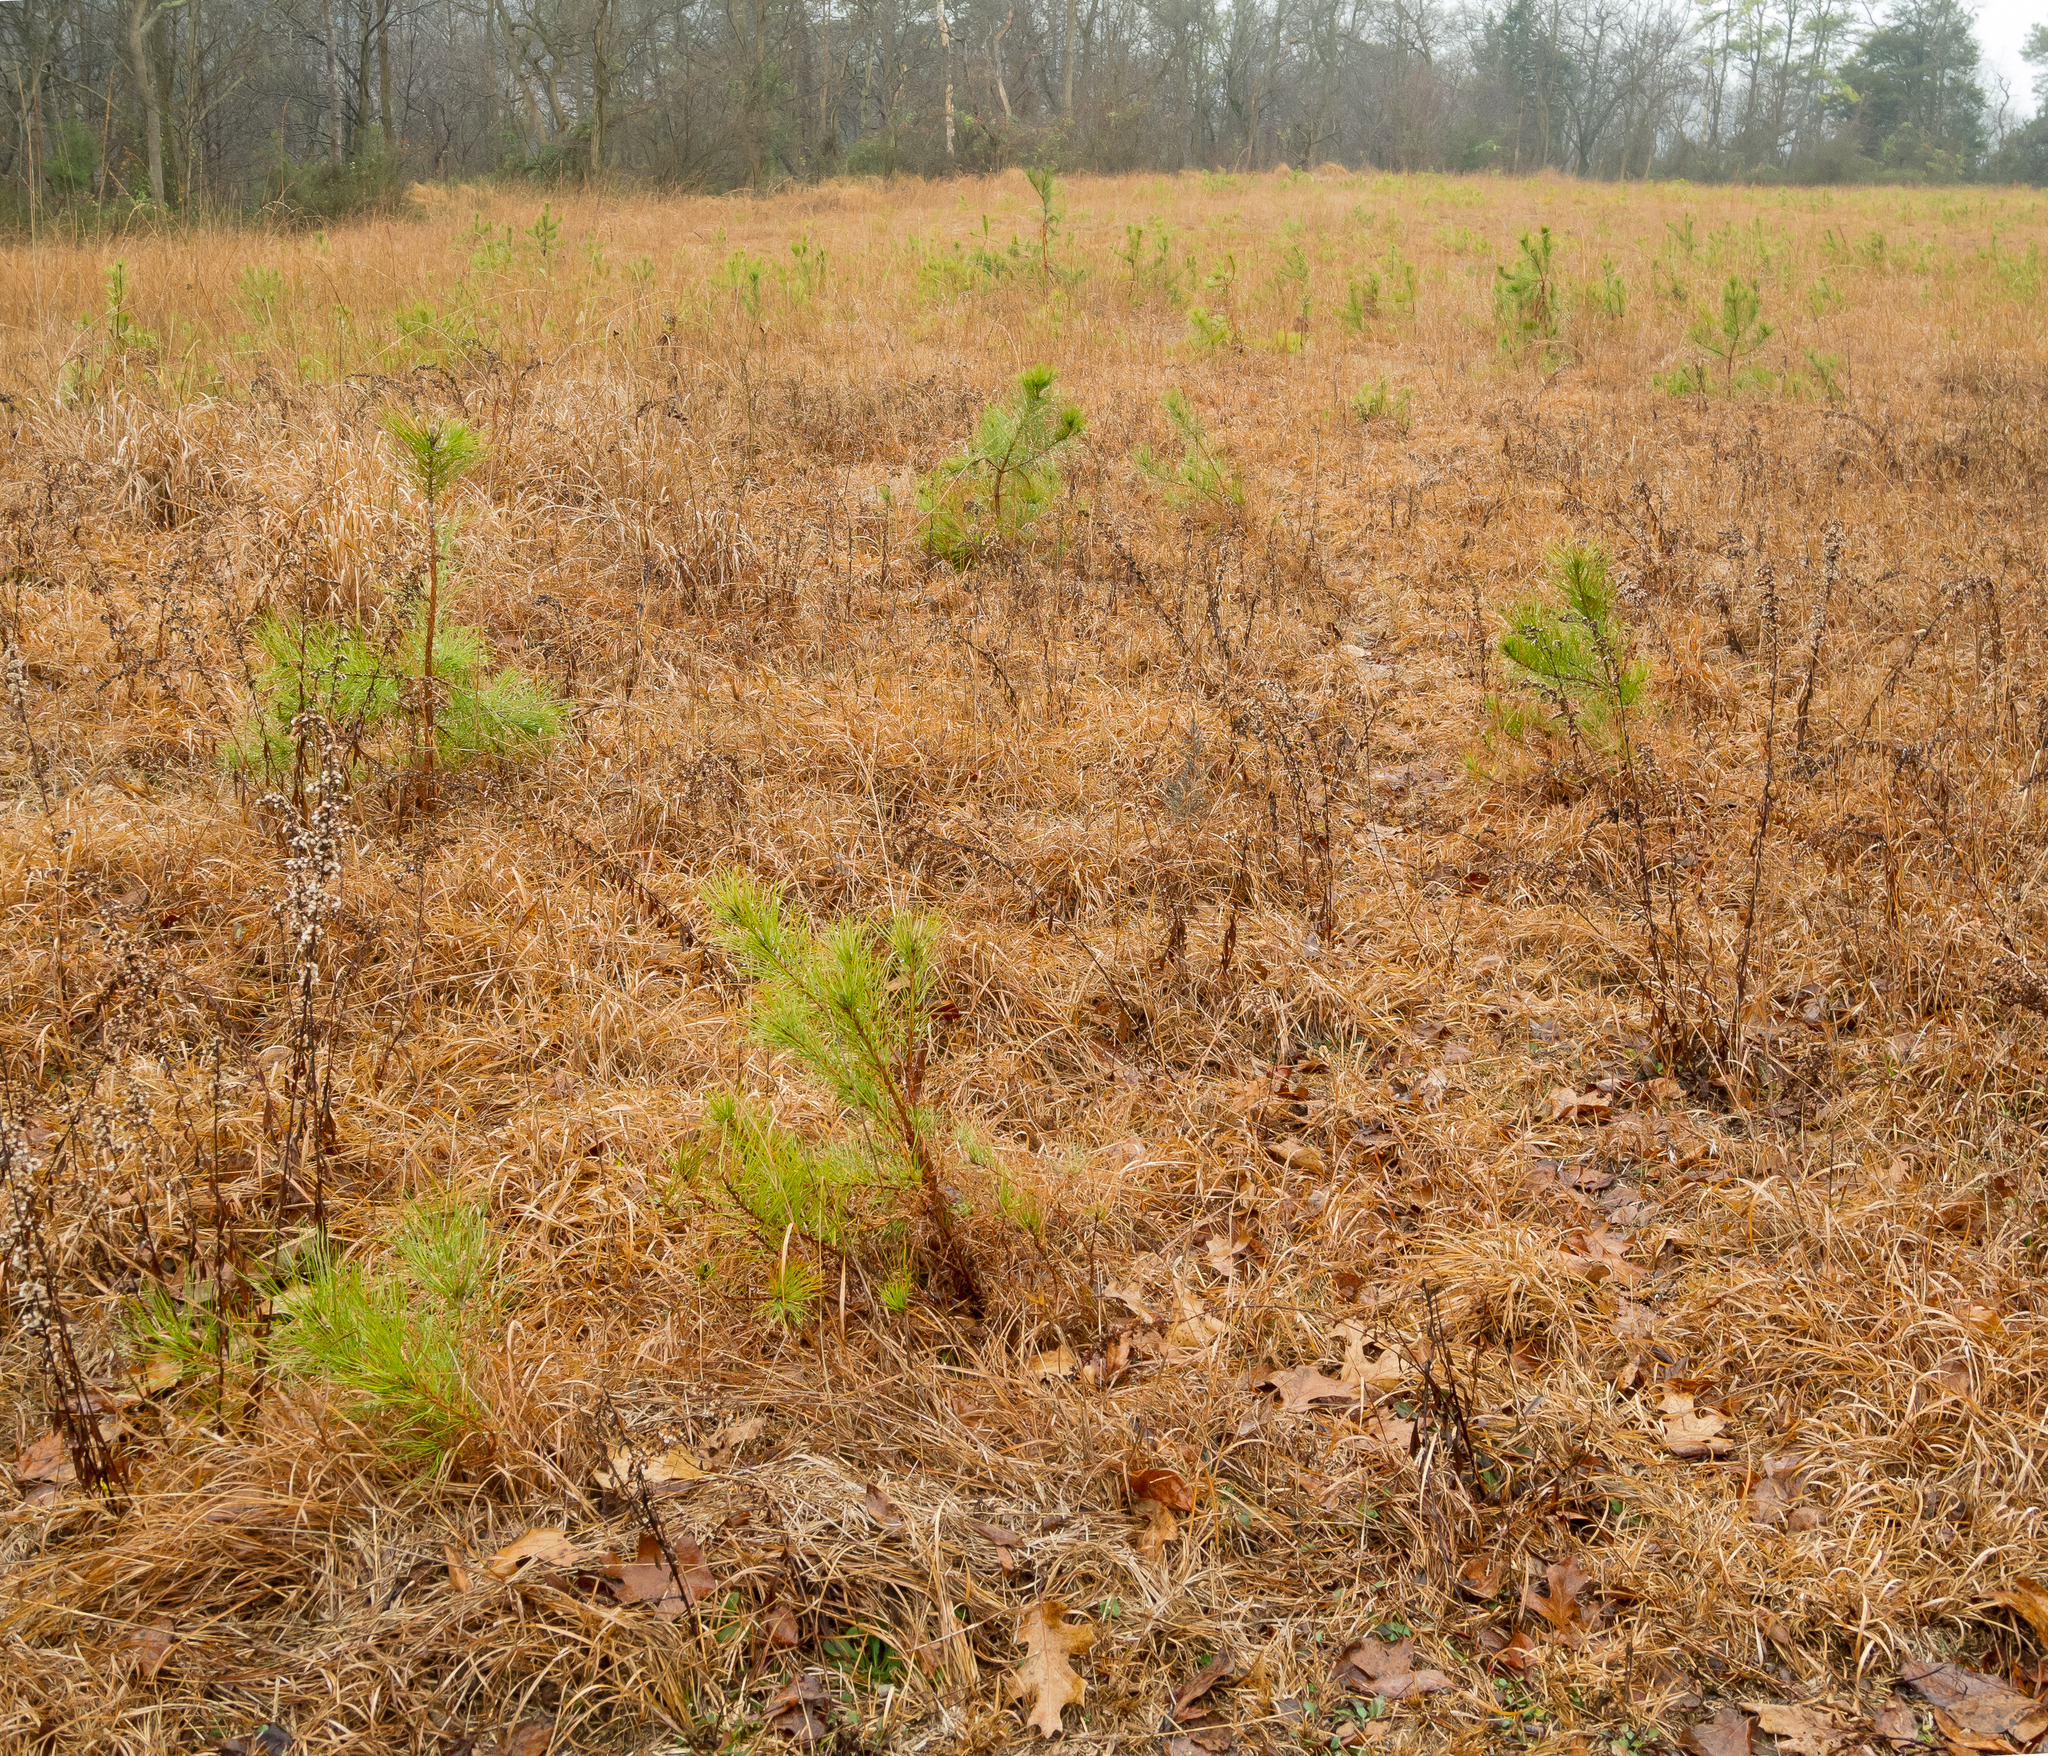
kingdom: Plantae
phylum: Tracheophyta
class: Pinopsida
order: Pinales
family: Pinaceae
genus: Pinus
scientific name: Pinus rigida
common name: Pitch pine
